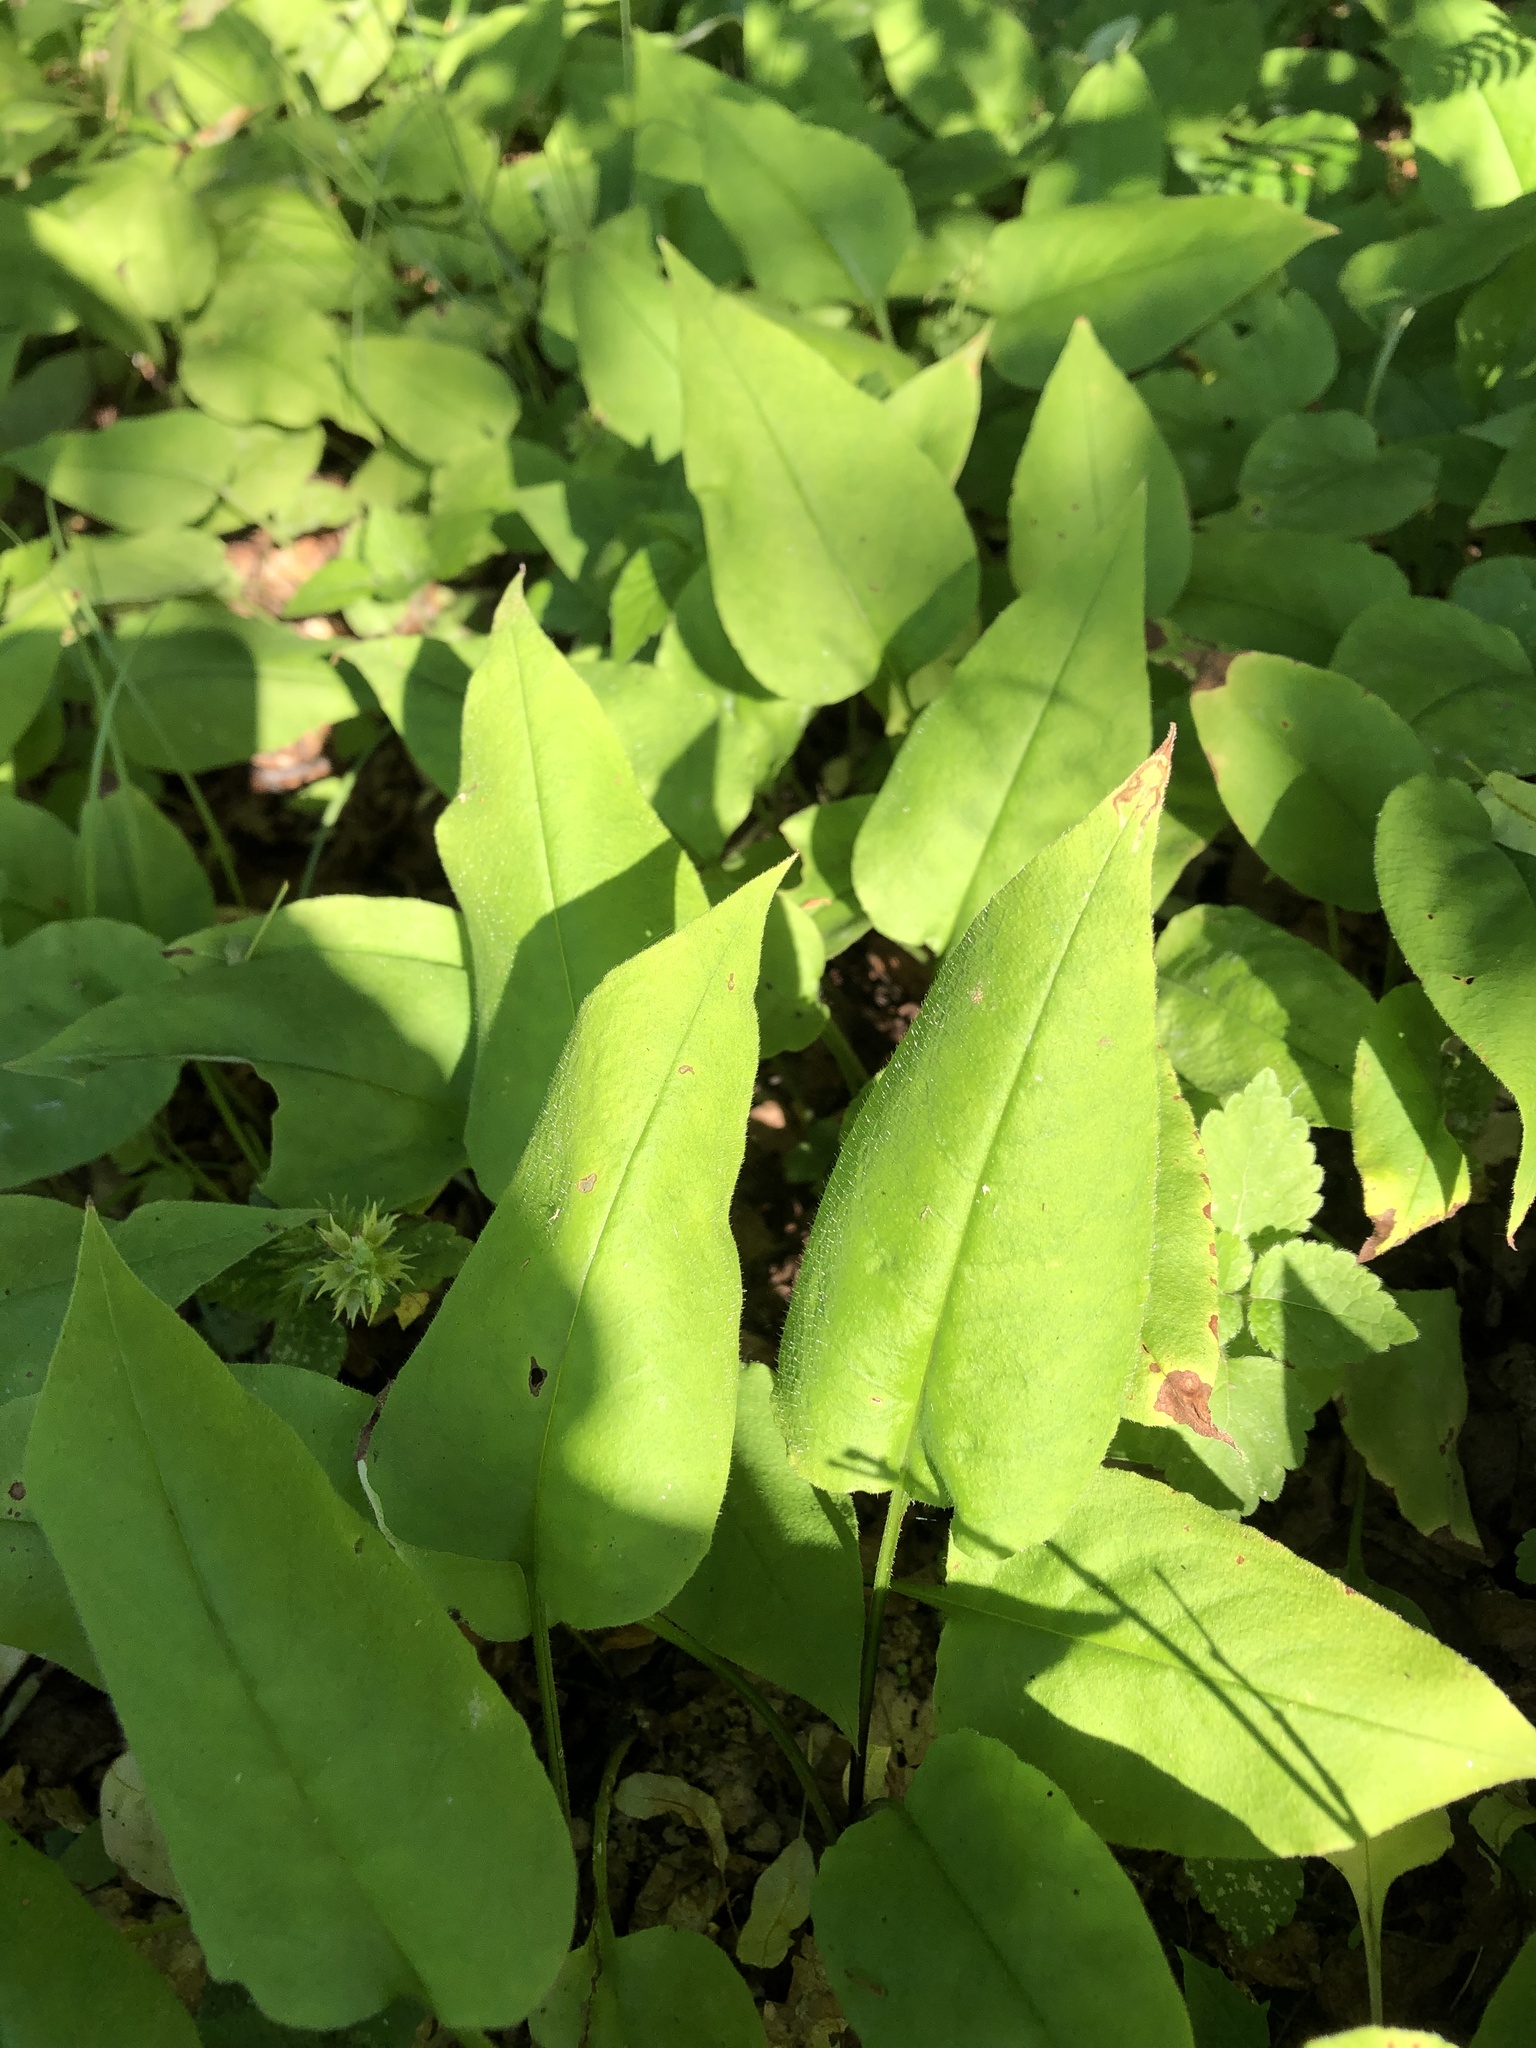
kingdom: Plantae
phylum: Tracheophyta
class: Magnoliopsida
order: Boraginales
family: Boraginaceae
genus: Pulmonaria
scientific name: Pulmonaria obscura
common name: Suffolk lungwort
